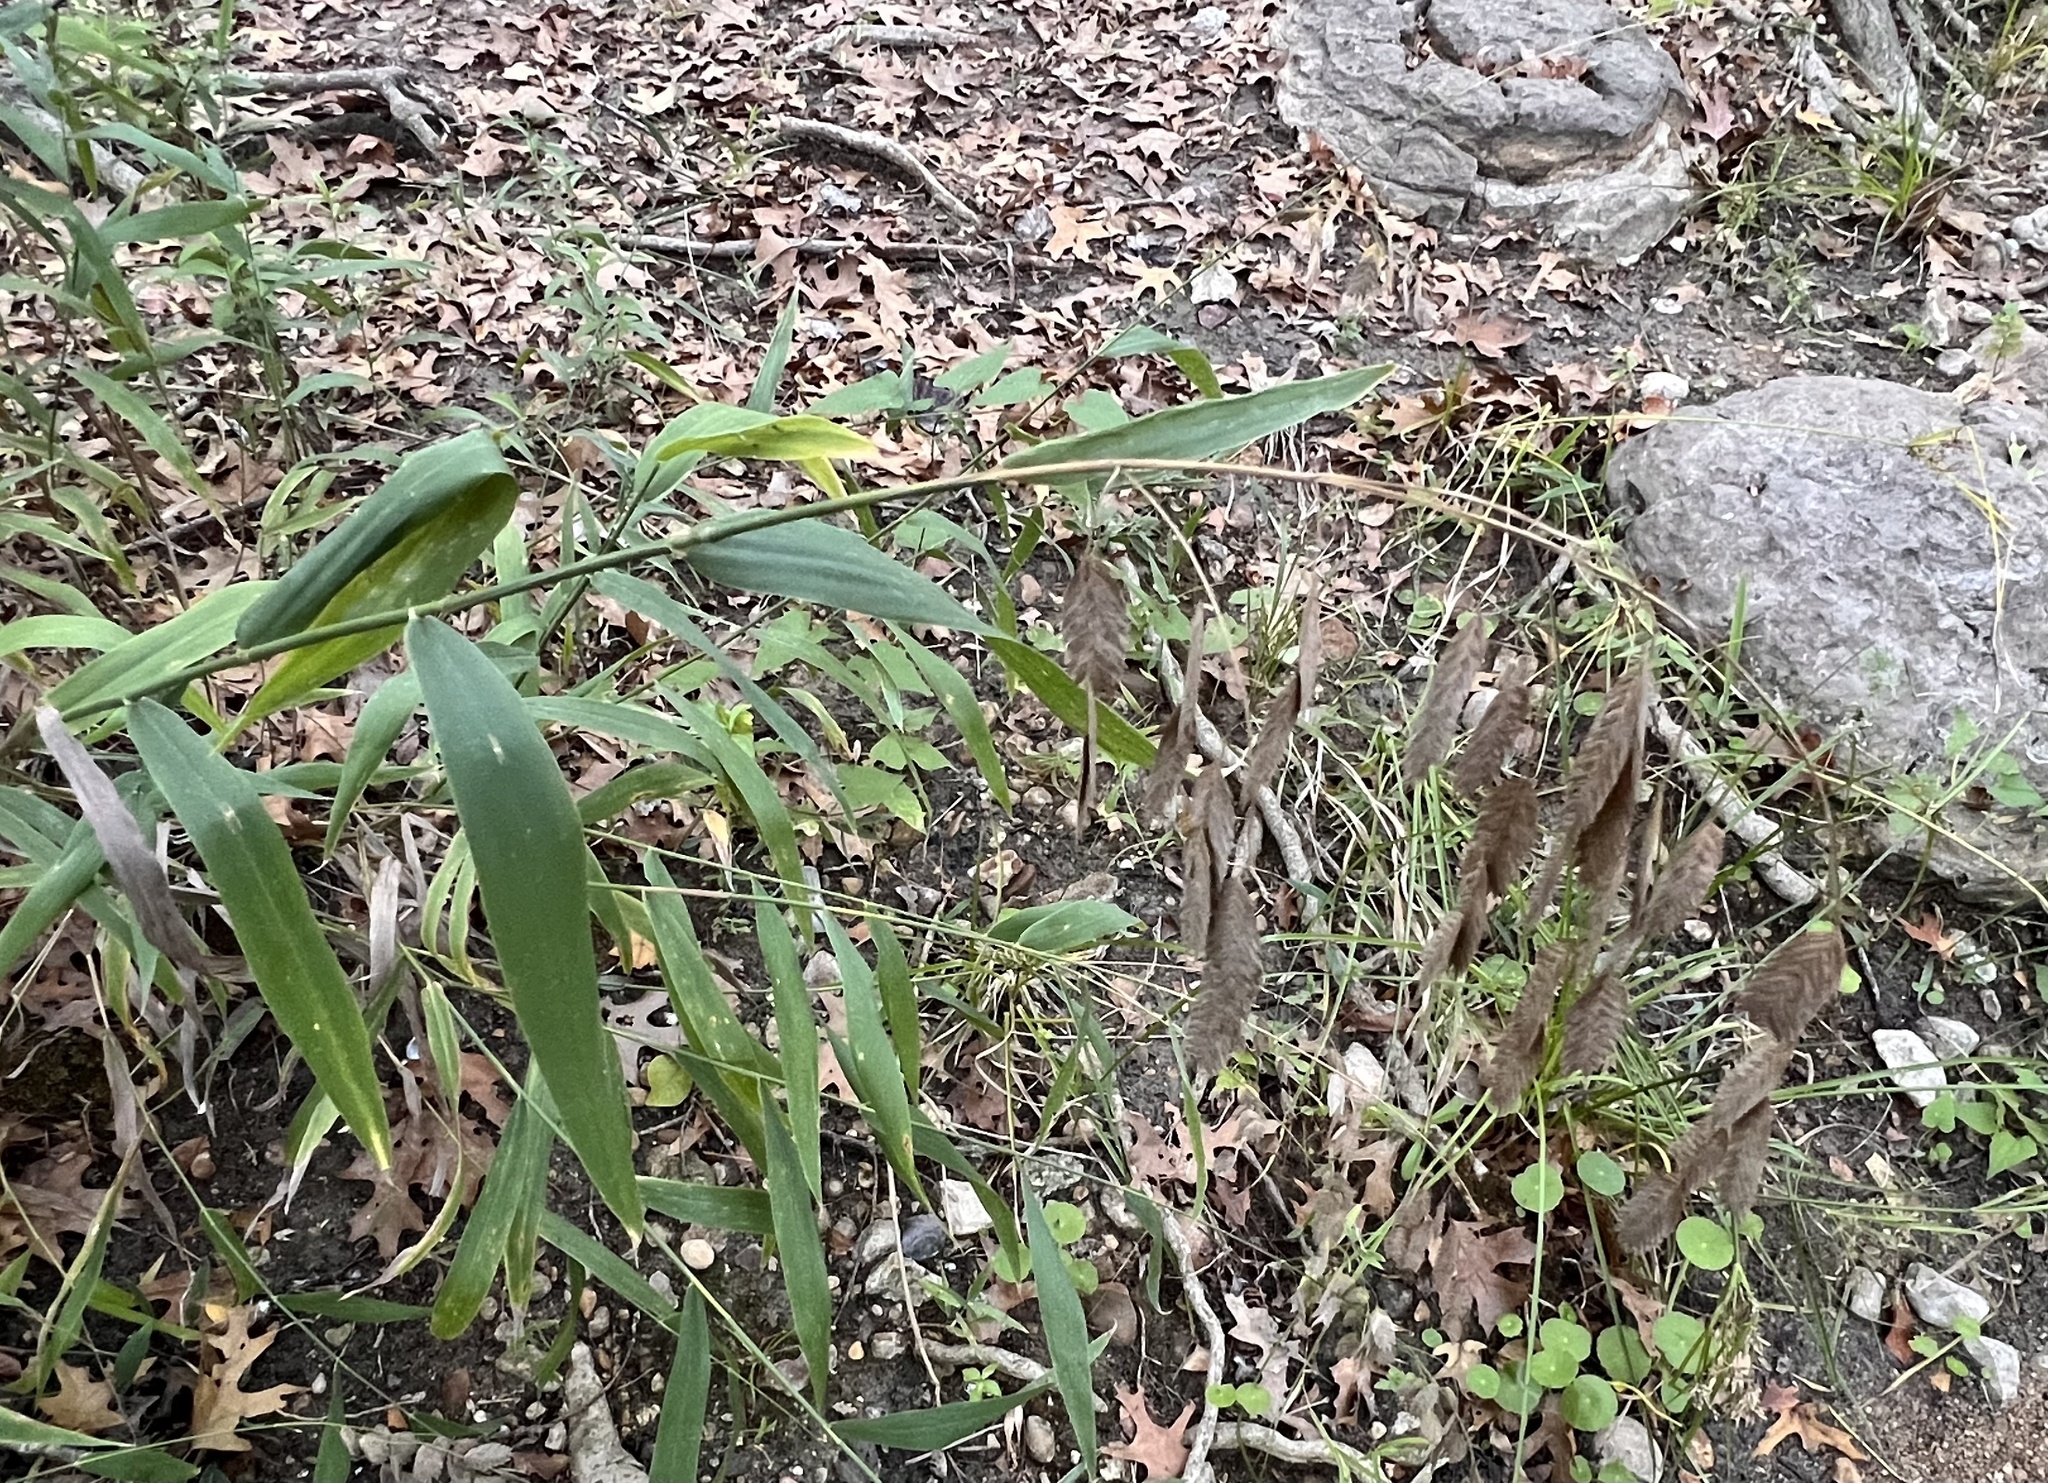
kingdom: Plantae
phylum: Tracheophyta
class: Liliopsida
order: Poales
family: Poaceae
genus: Chasmanthium
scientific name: Chasmanthium latifolium
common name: Broad-leaved chasmanthium
